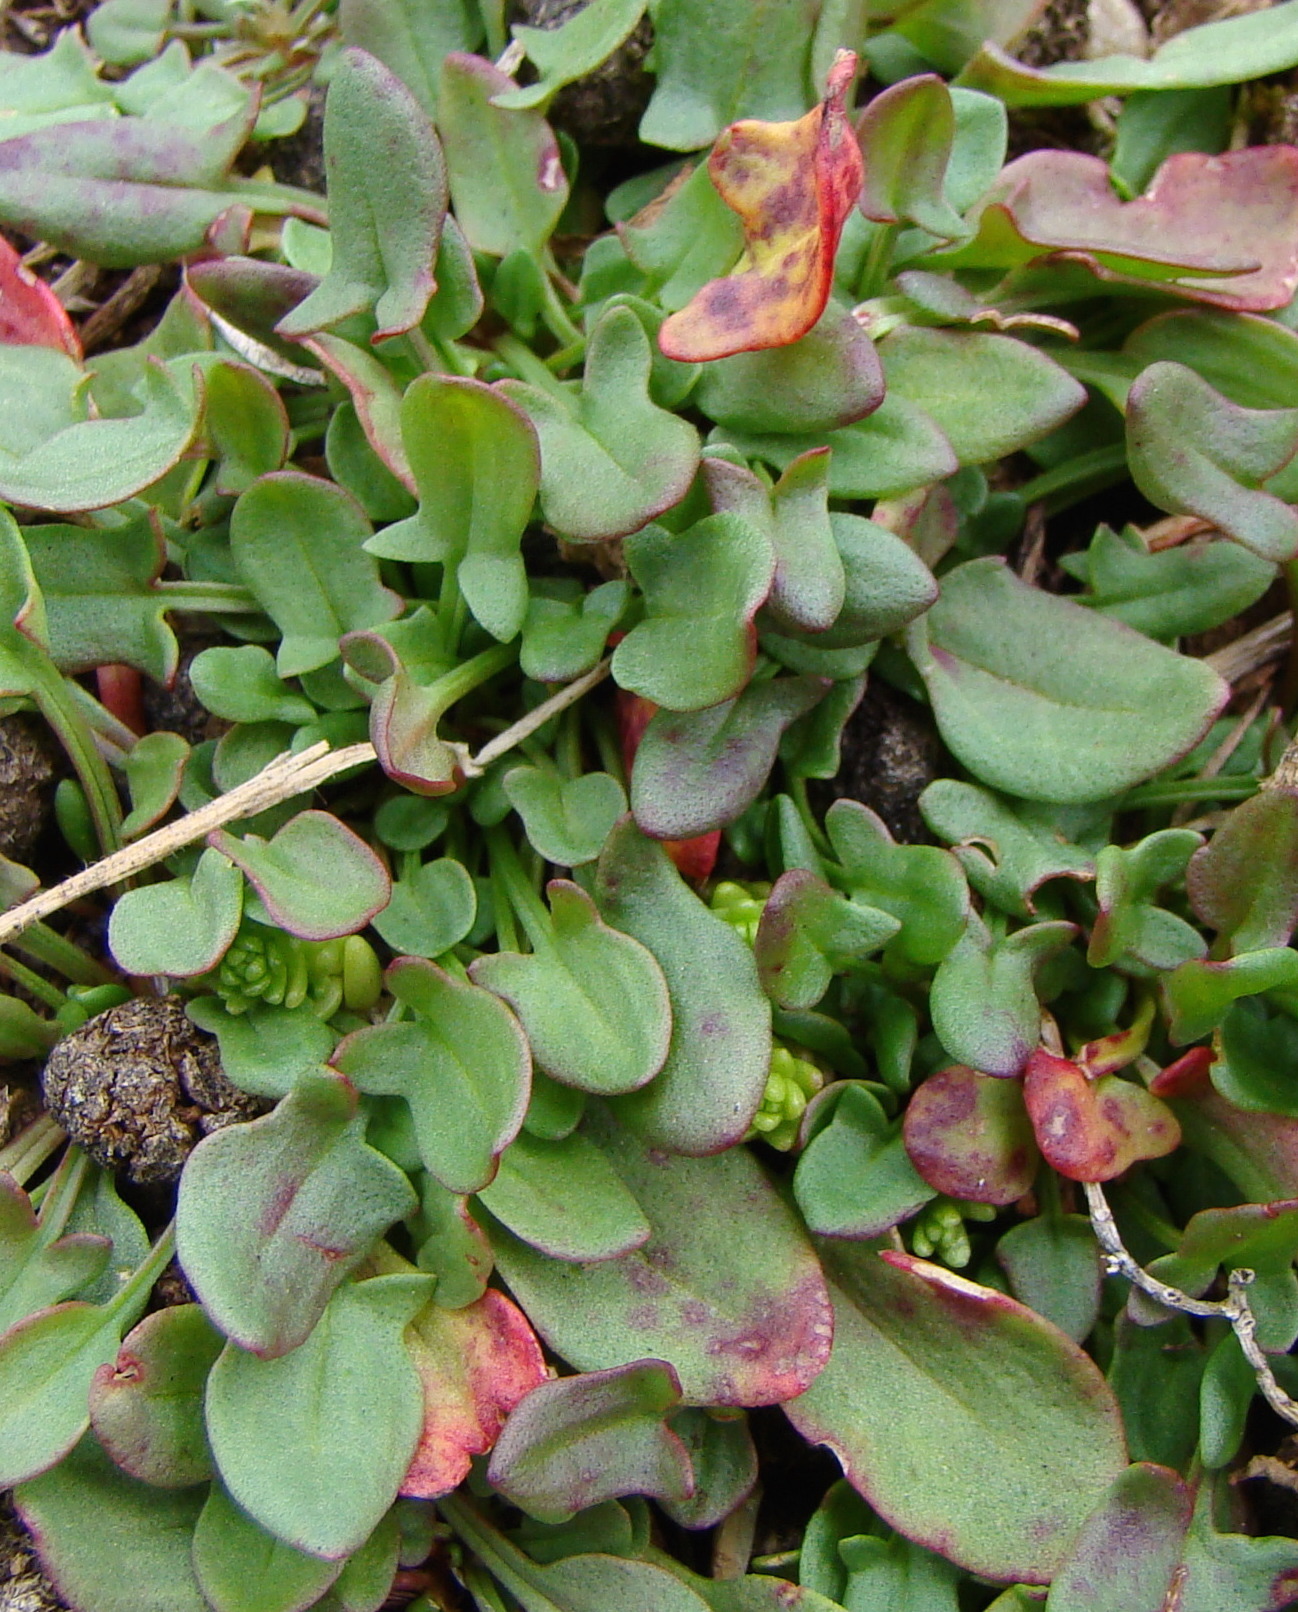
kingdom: Plantae
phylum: Tracheophyta
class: Magnoliopsida
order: Caryophyllales
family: Polygonaceae
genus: Rumex
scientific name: Rumex acetosella
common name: Common sheep sorrel
